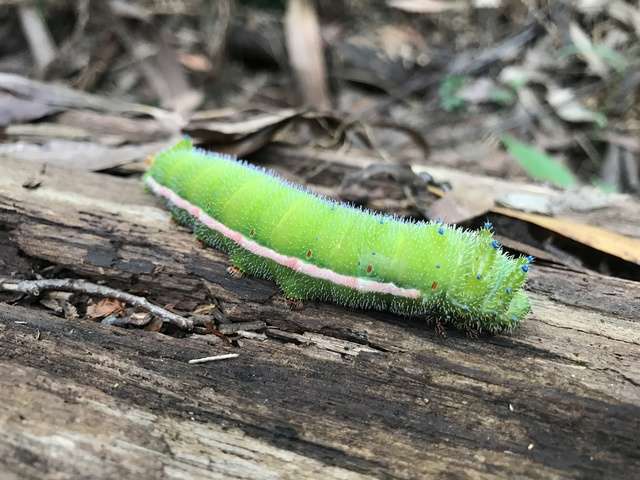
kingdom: Animalia
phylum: Arthropoda
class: Insecta
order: Lepidoptera
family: Saturniidae
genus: Opodiphthera
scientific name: Opodiphthera
